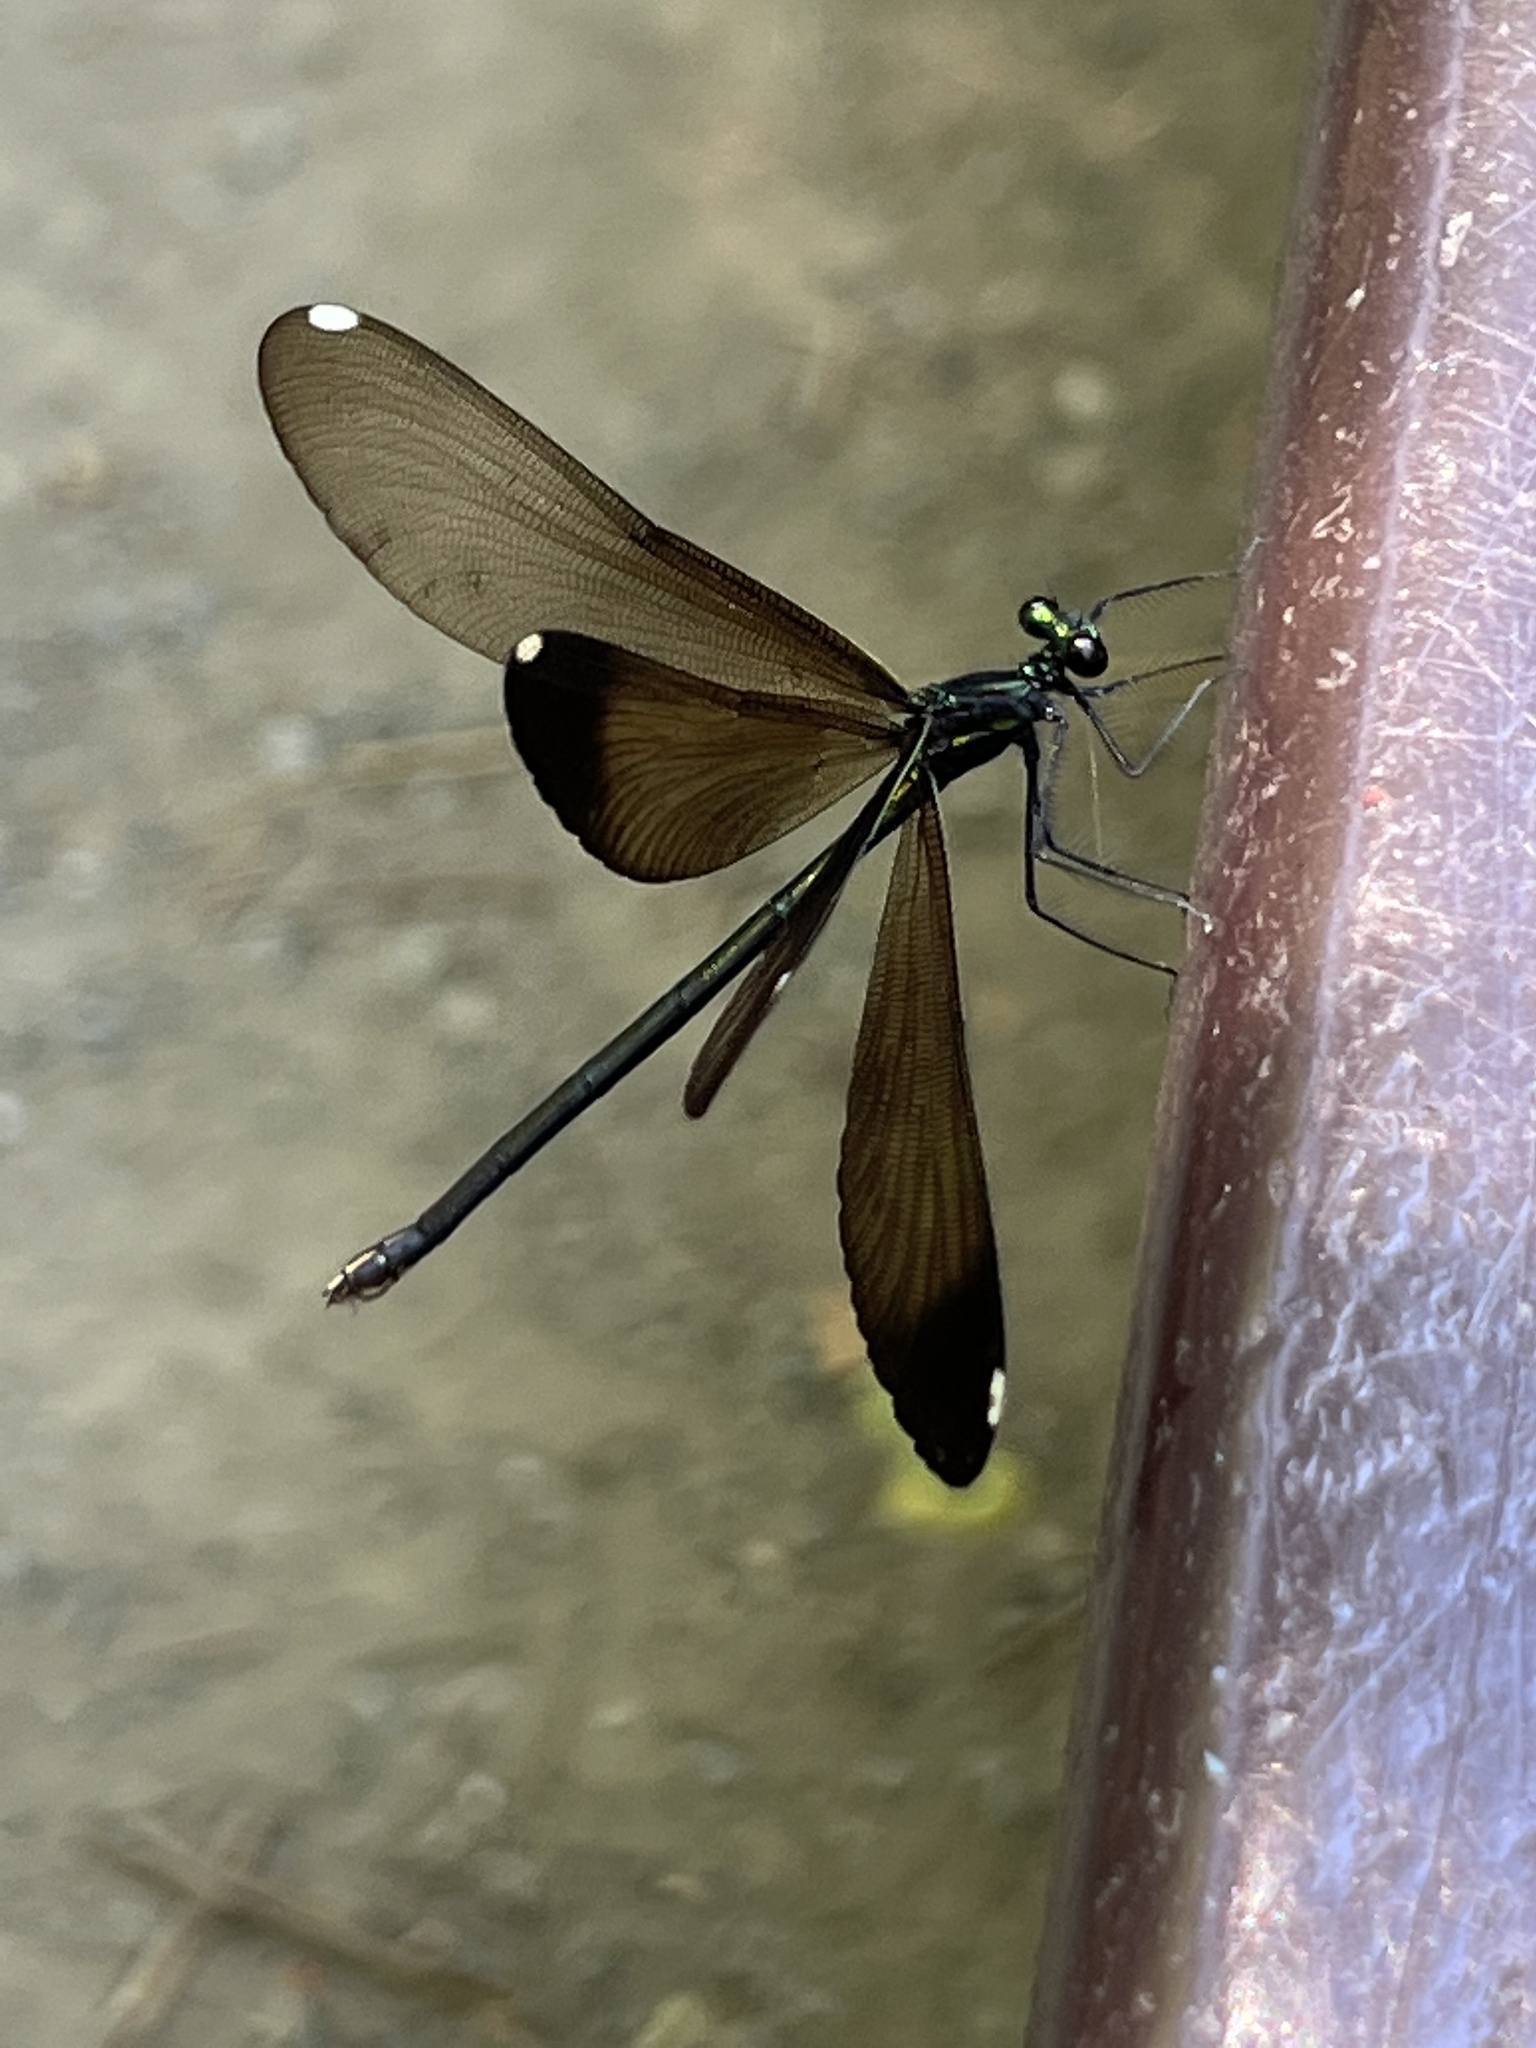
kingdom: Animalia
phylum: Arthropoda
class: Insecta
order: Odonata
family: Calopterygidae
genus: Calopteryx
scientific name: Calopteryx maculata
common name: Ebony jewelwing
